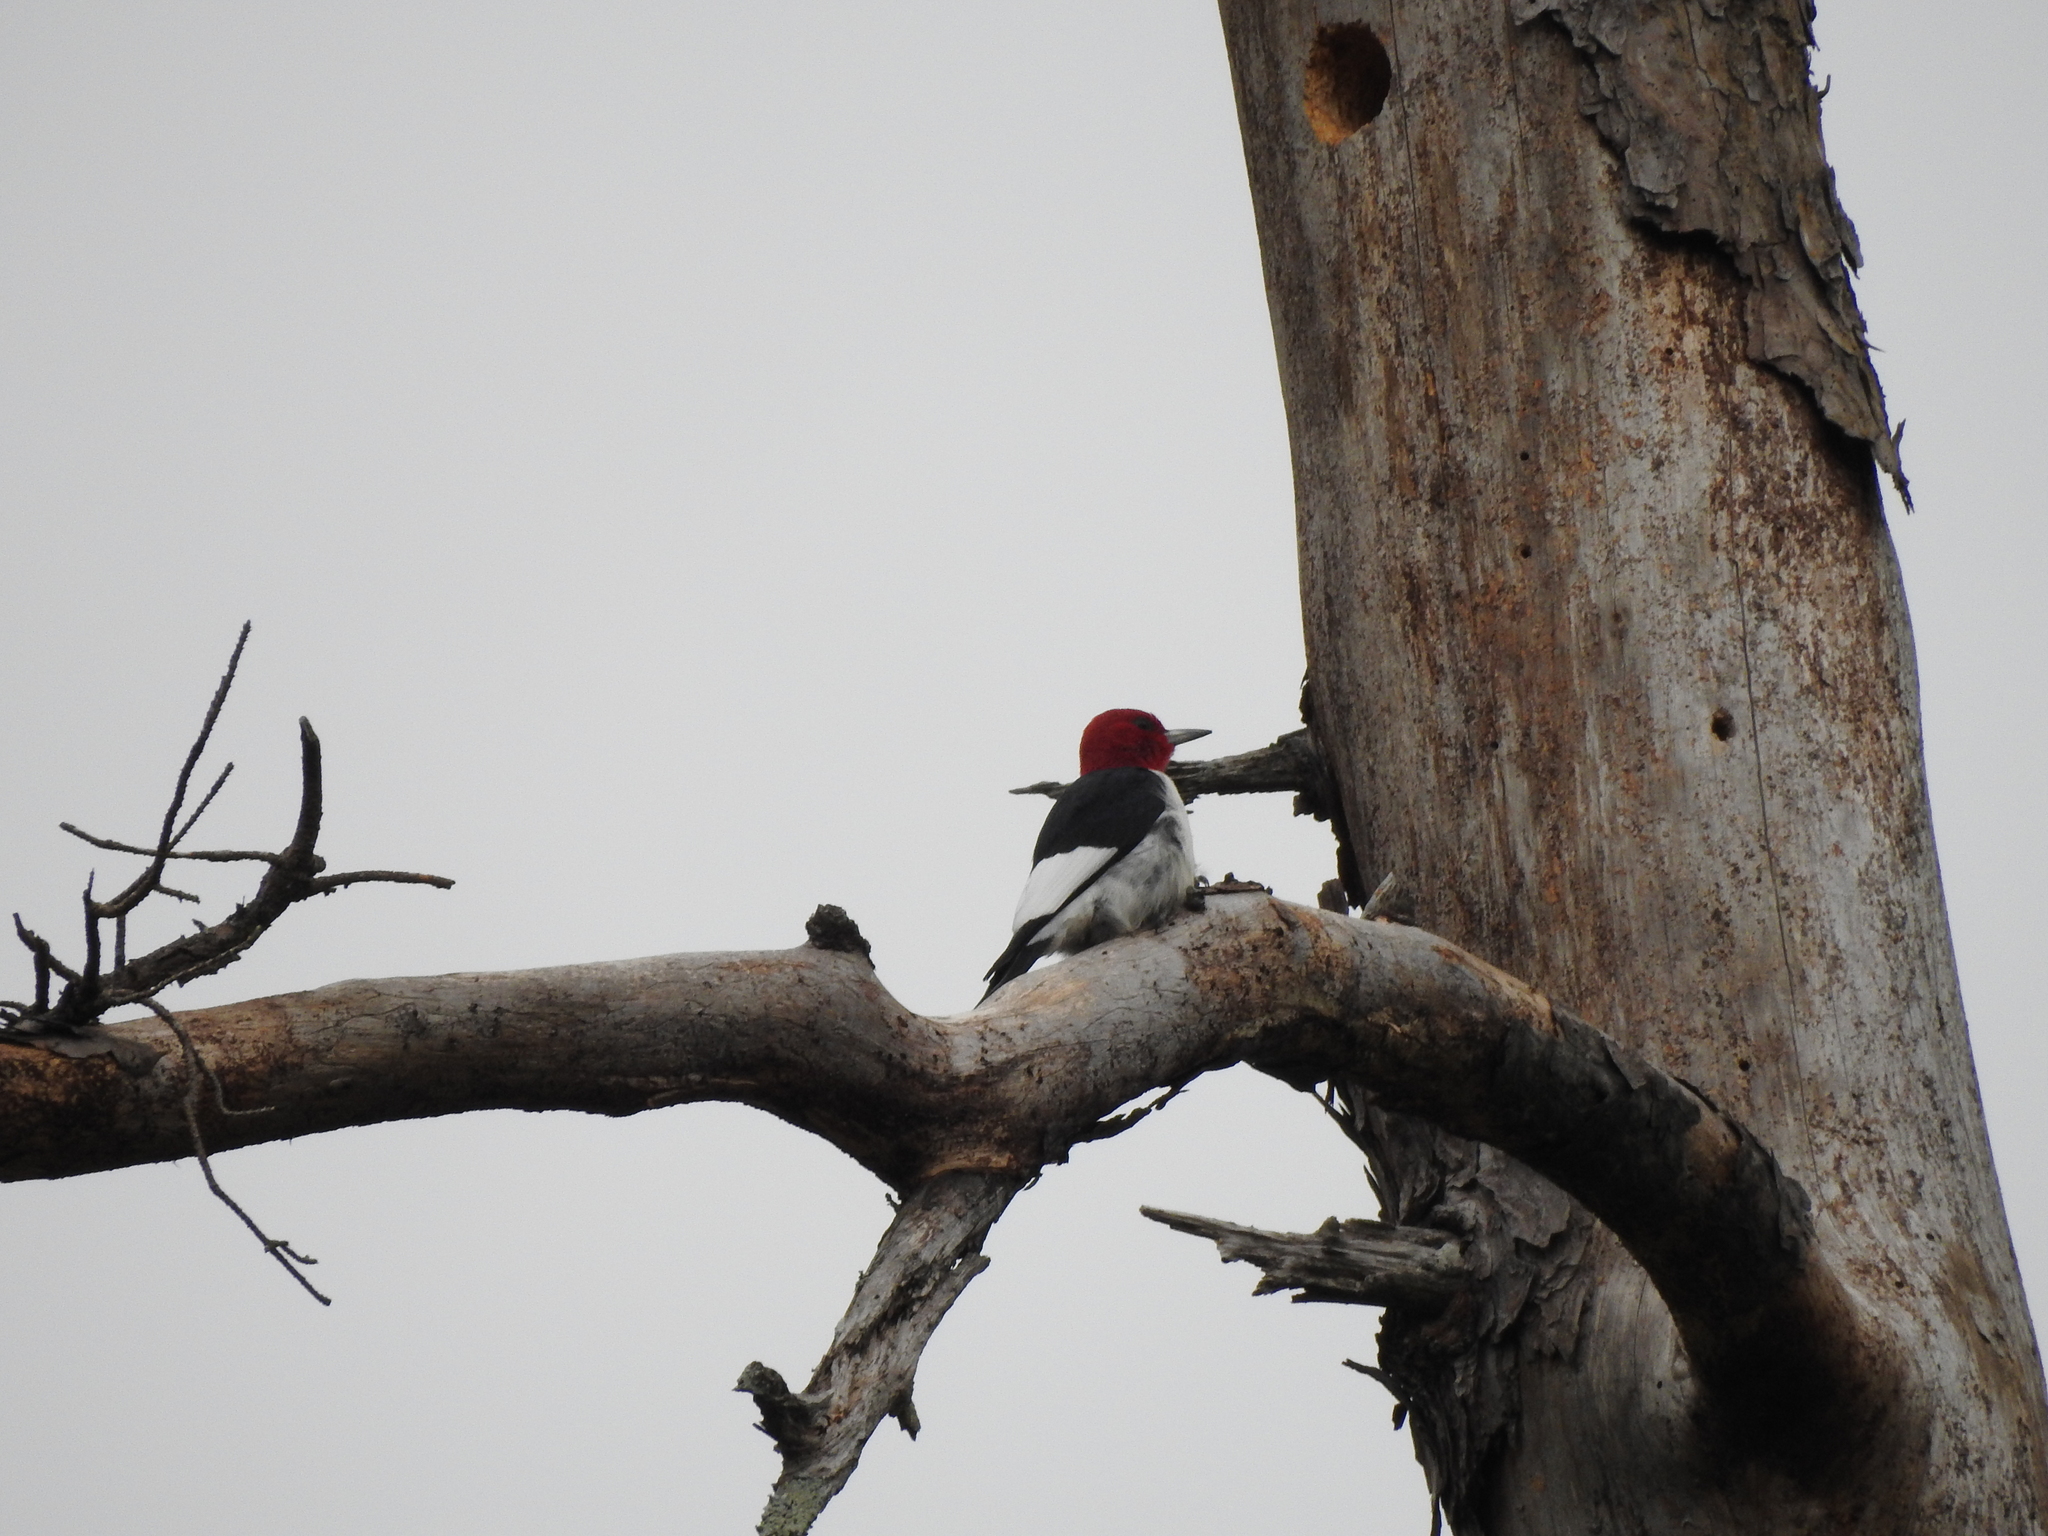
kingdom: Animalia
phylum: Chordata
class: Aves
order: Piciformes
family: Picidae
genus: Melanerpes
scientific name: Melanerpes erythrocephalus
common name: Red-headed woodpecker
